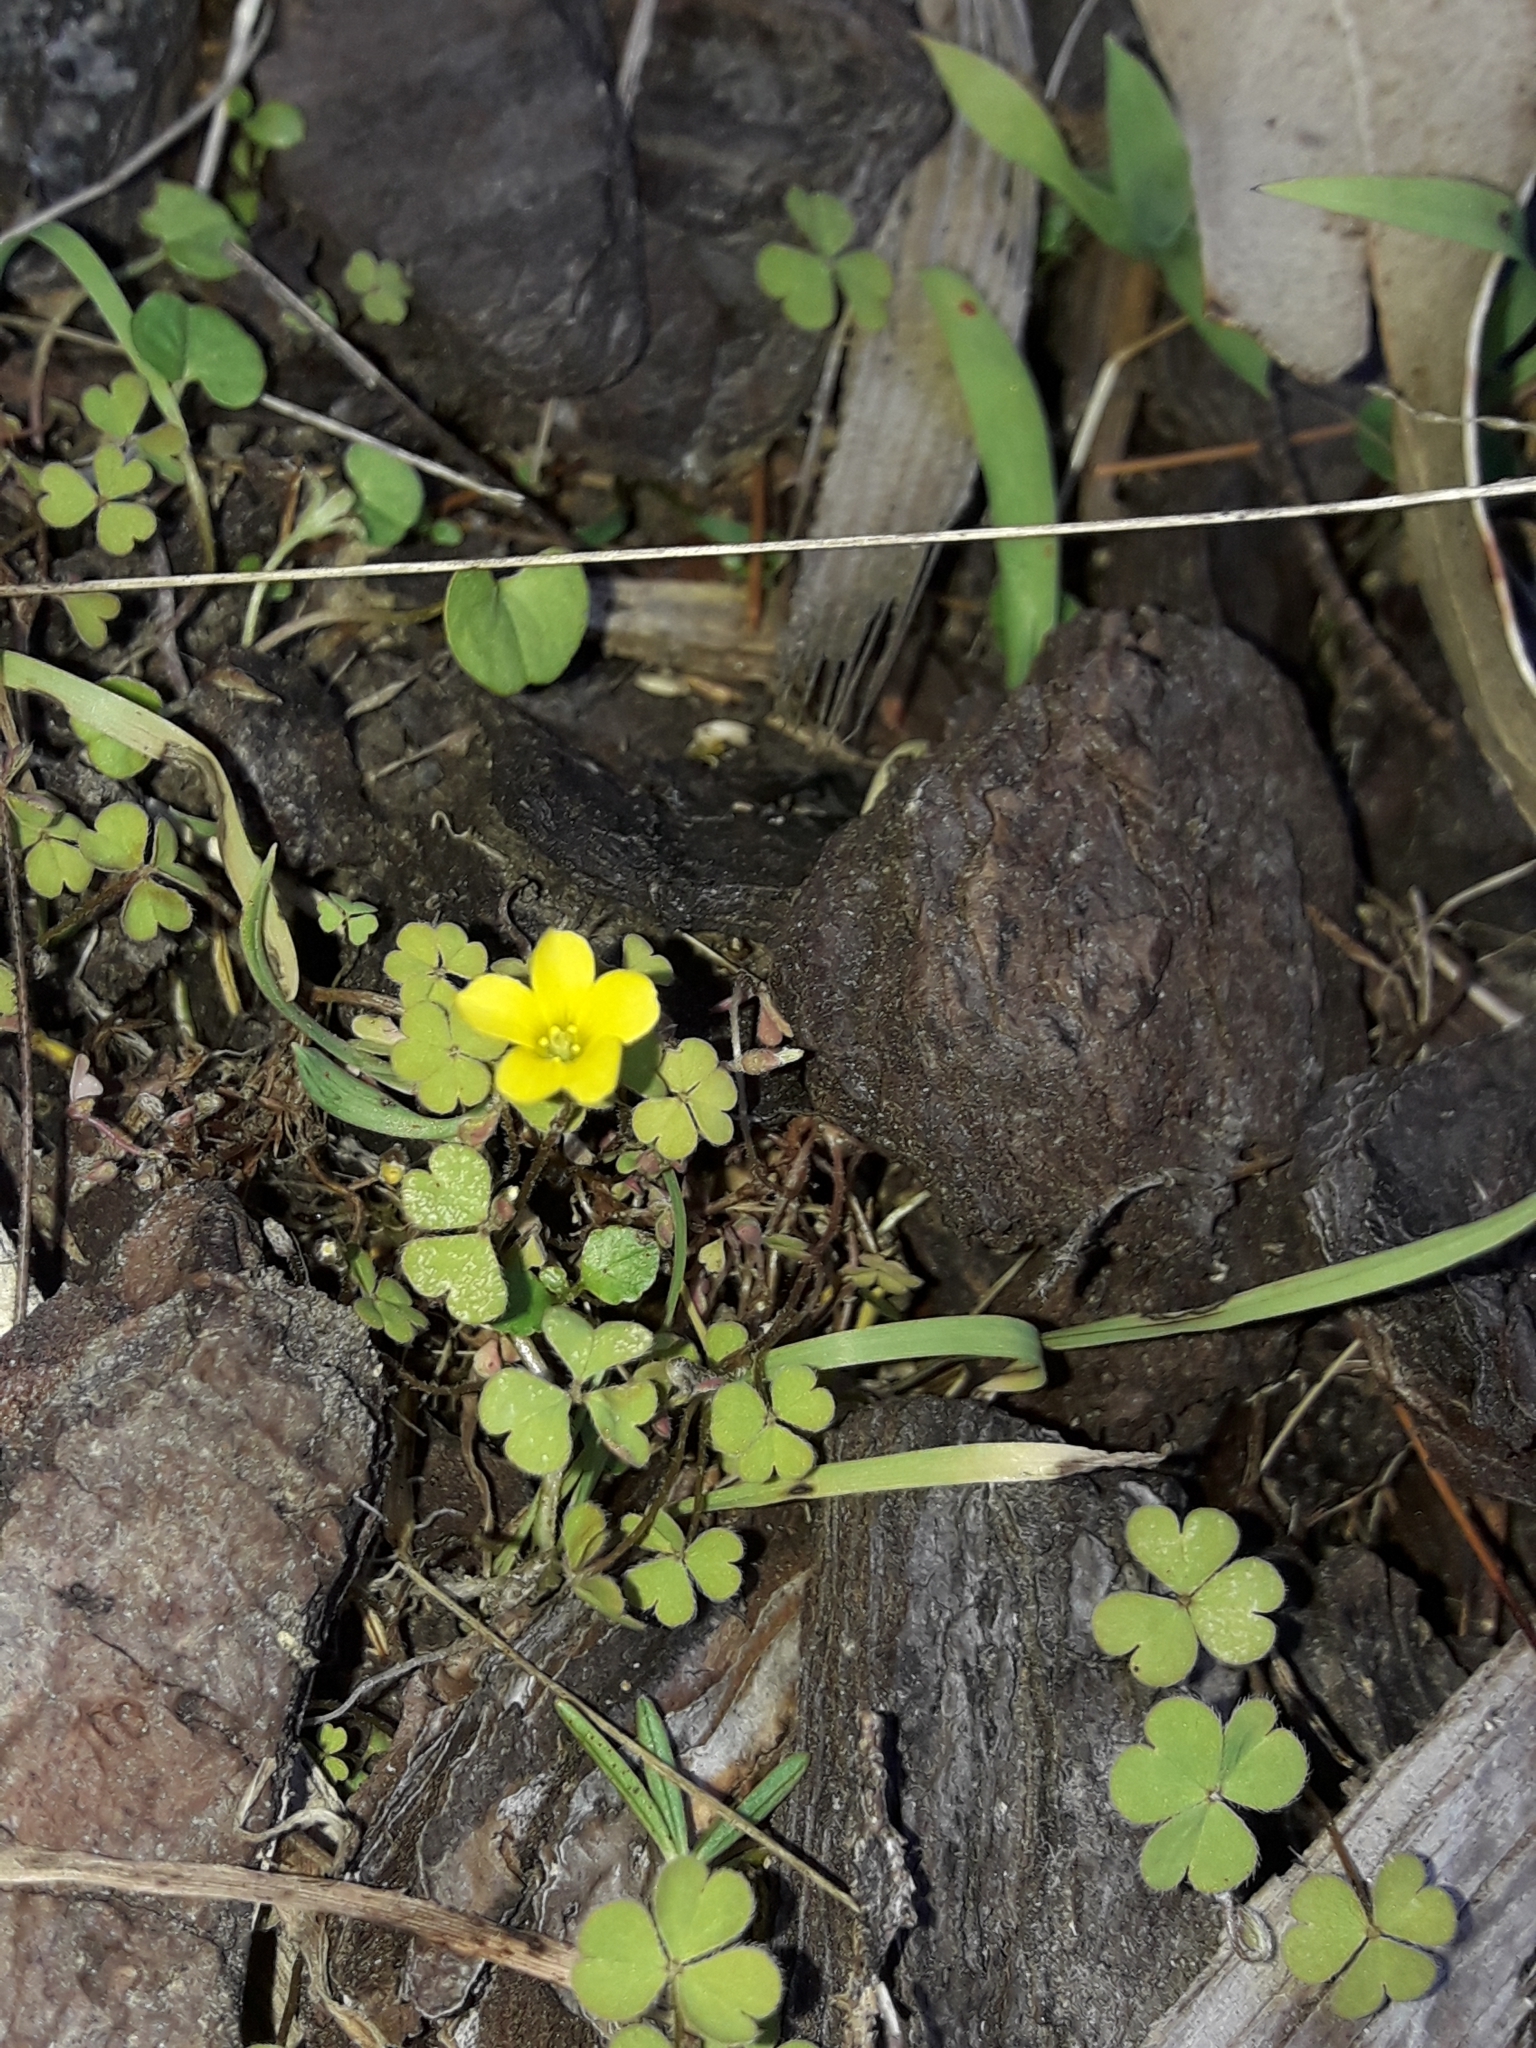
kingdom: Plantae
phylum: Tracheophyta
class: Magnoliopsida
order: Oxalidales
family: Oxalidaceae
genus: Oxalis
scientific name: Oxalis exilis
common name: Least yellow-sorrel
